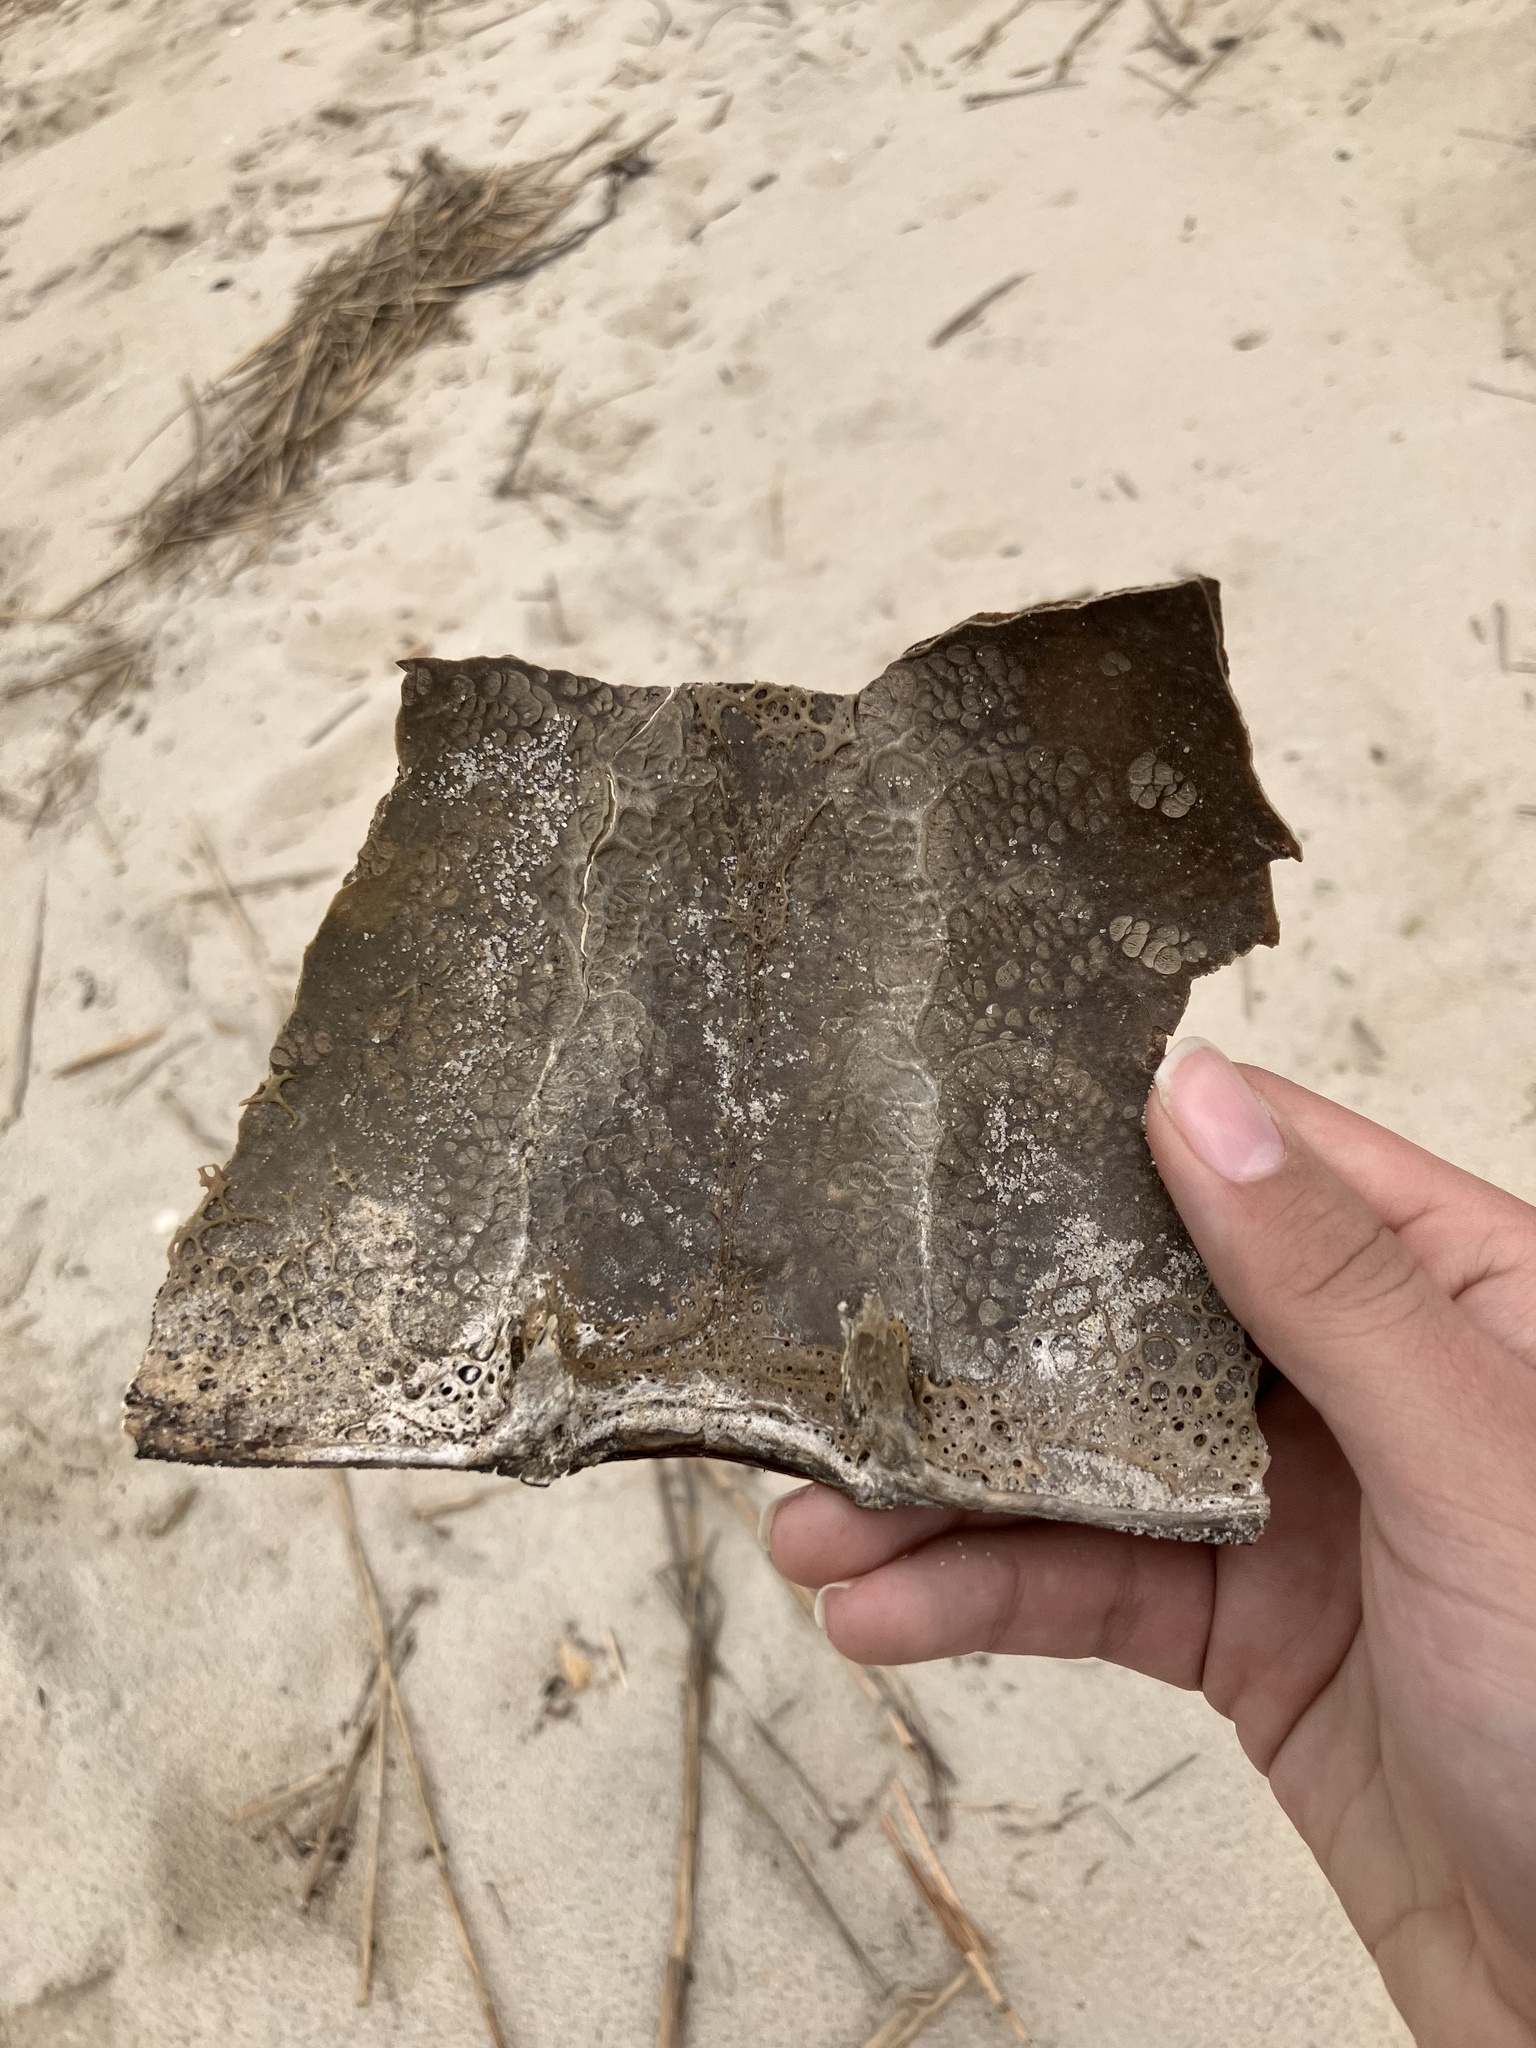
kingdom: Animalia
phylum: Arthropoda
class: Merostomata
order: Xiphosurida
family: Limulidae
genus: Limulus
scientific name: Limulus polyphemus
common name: Horseshoe crab
